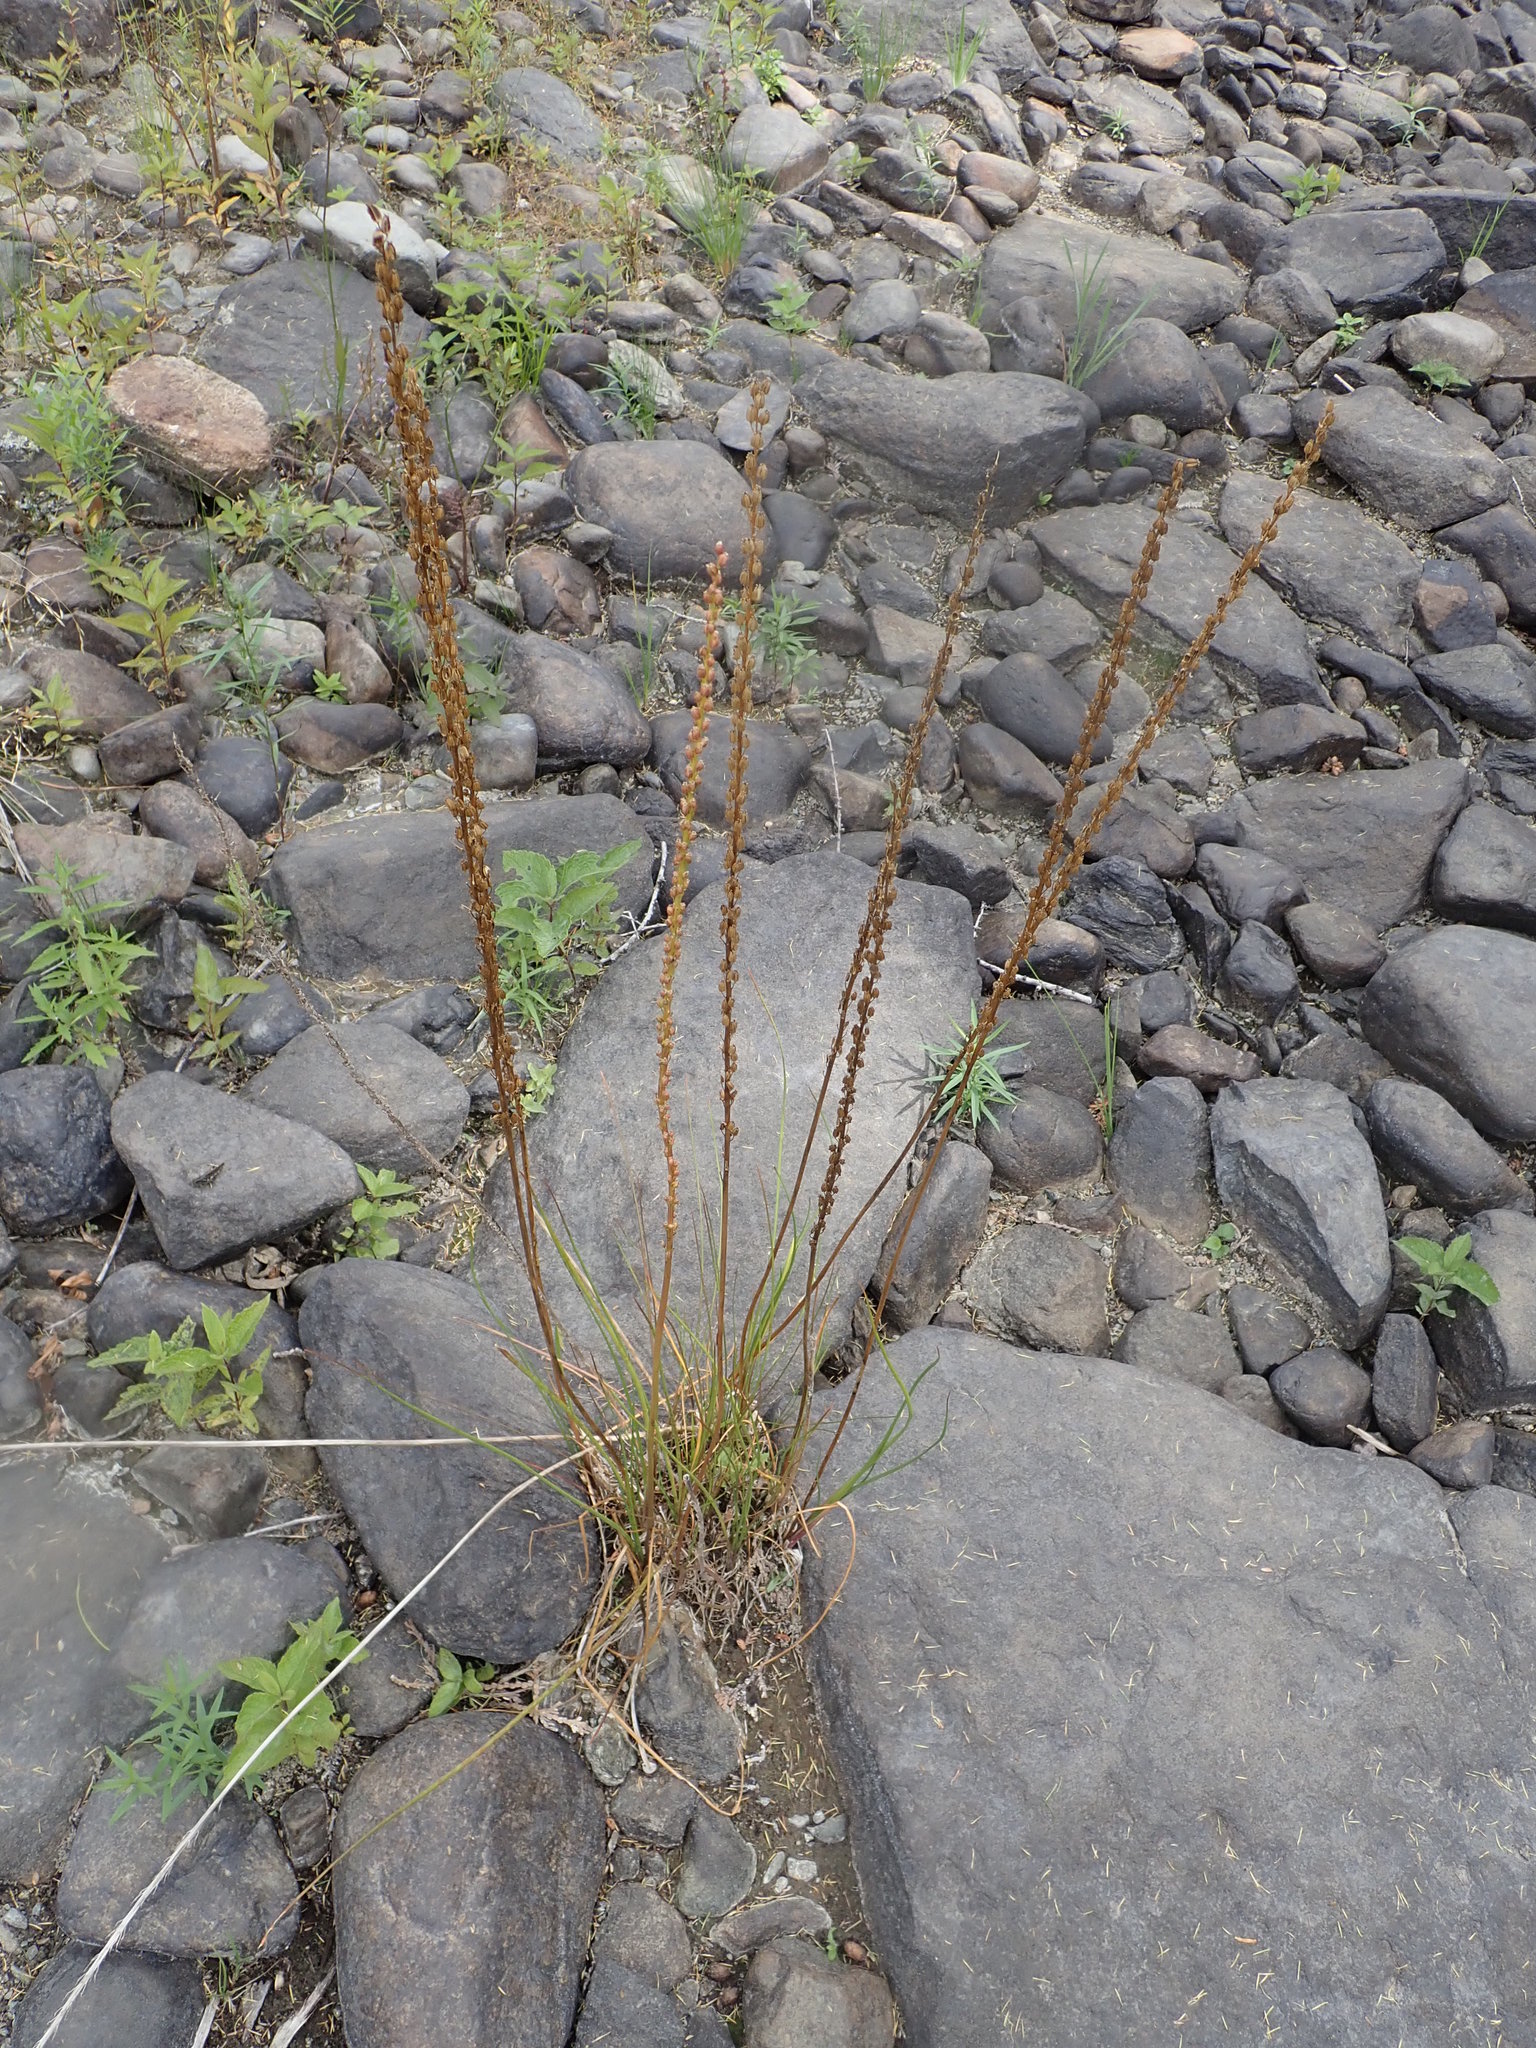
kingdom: Plantae
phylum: Tracheophyta
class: Liliopsida
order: Alismatales
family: Juncaginaceae
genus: Triglochin
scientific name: Triglochin maritima
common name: Sea arrowgrass
